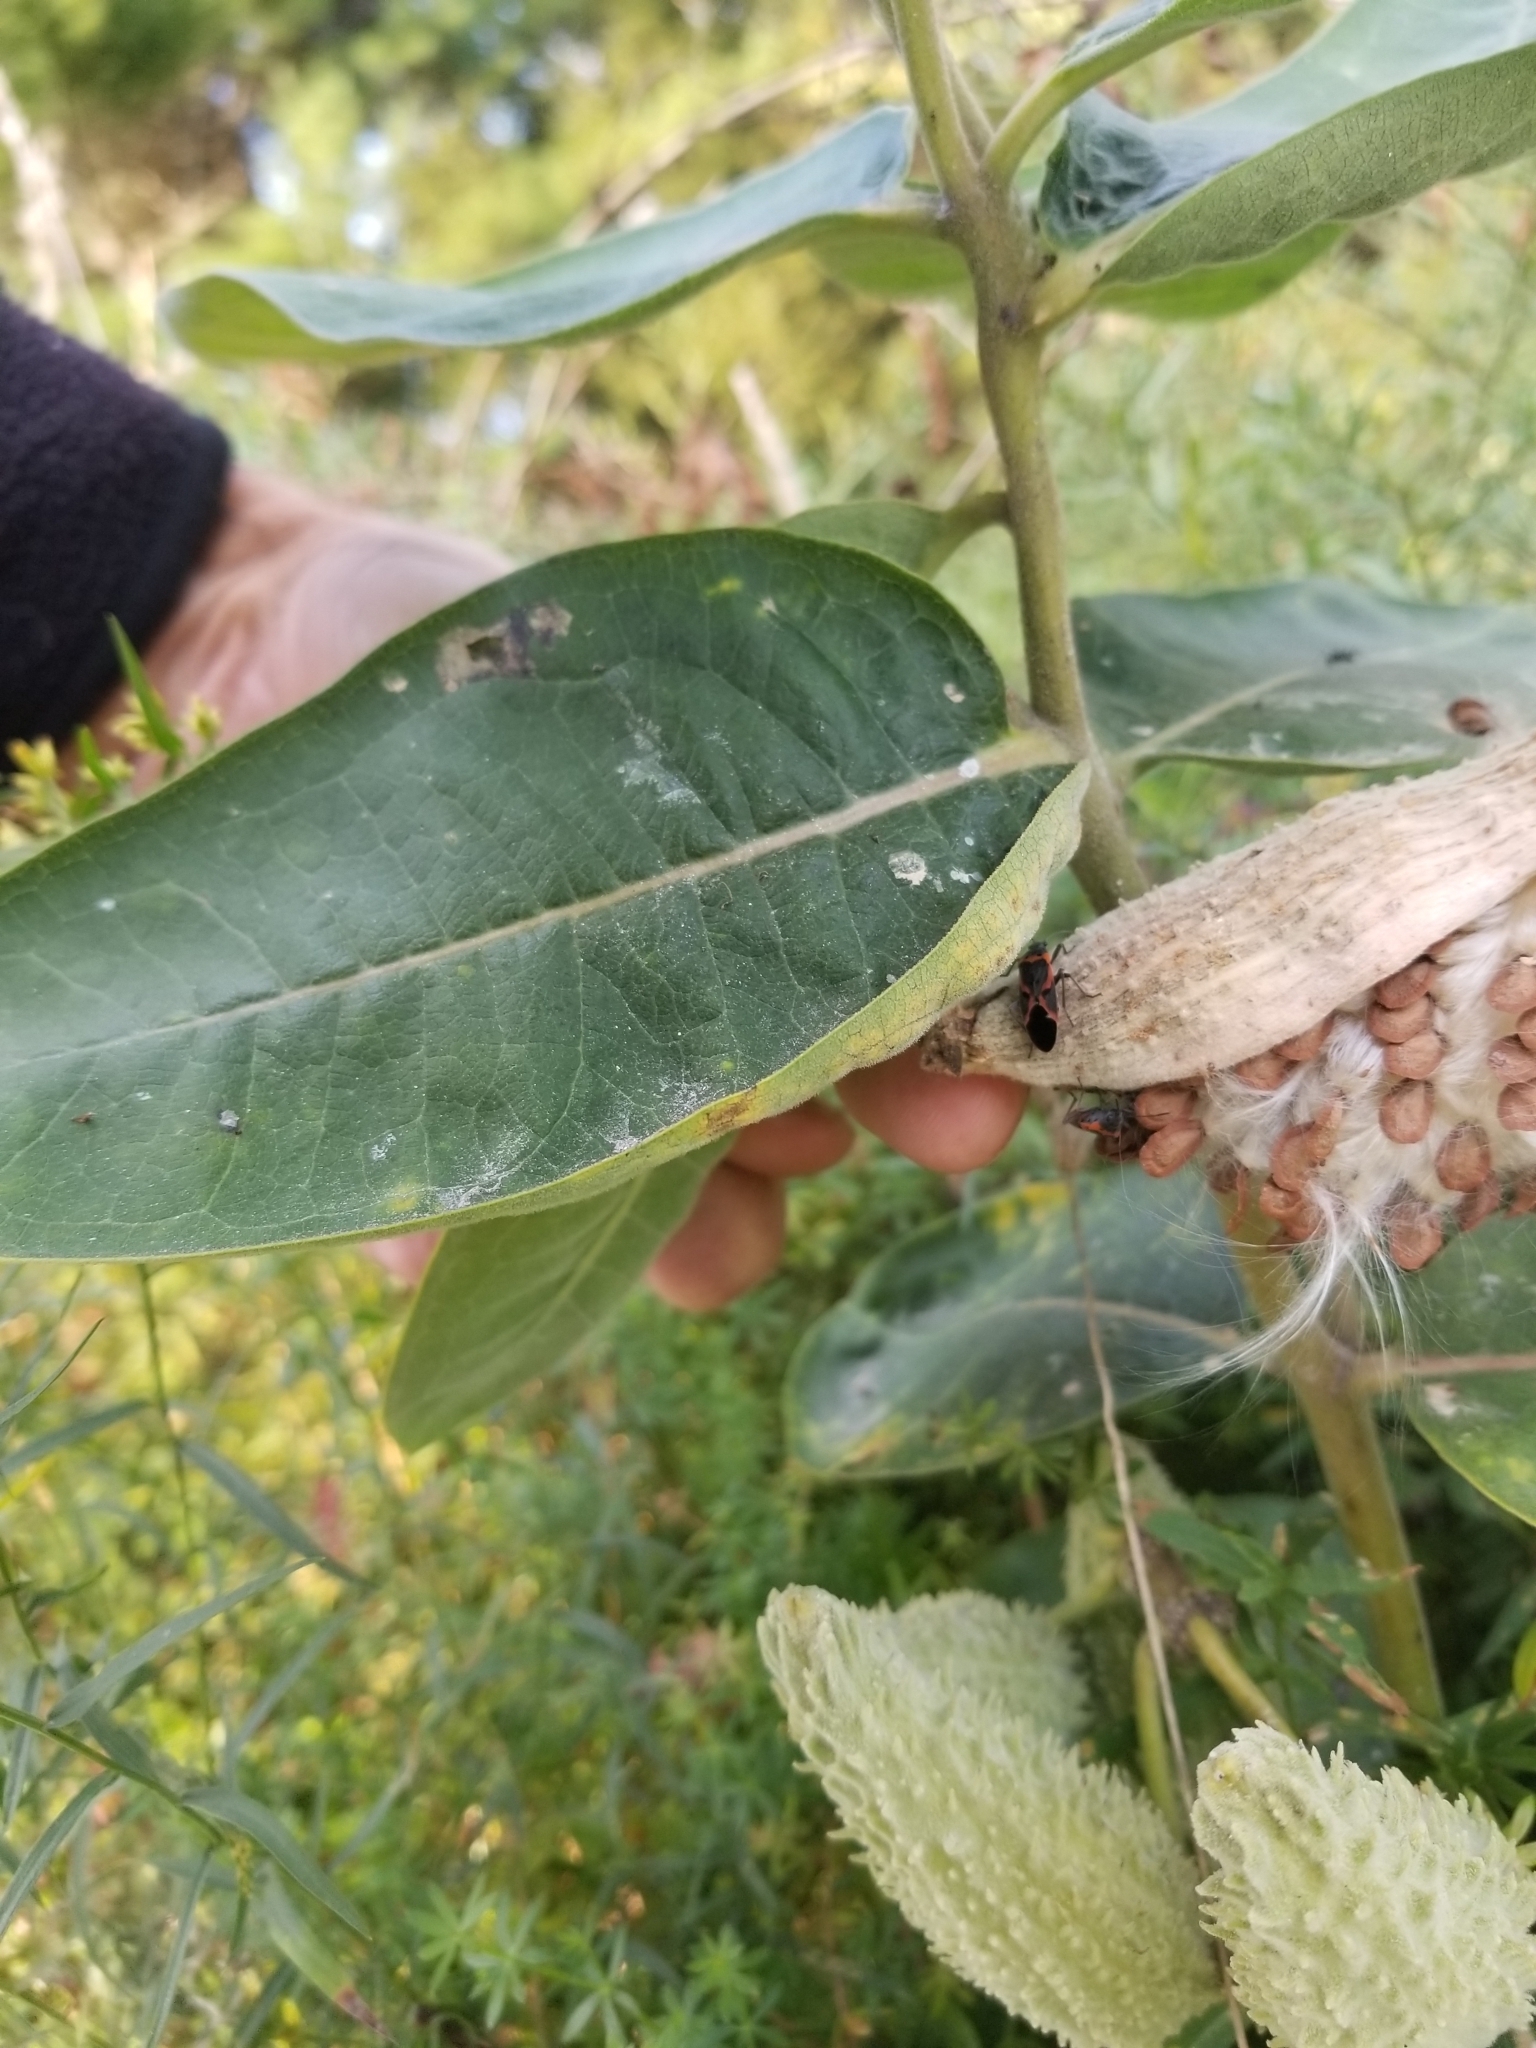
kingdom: Animalia
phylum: Arthropoda
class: Insecta
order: Hemiptera
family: Lygaeidae
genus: Lygaeus
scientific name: Lygaeus kalmii
